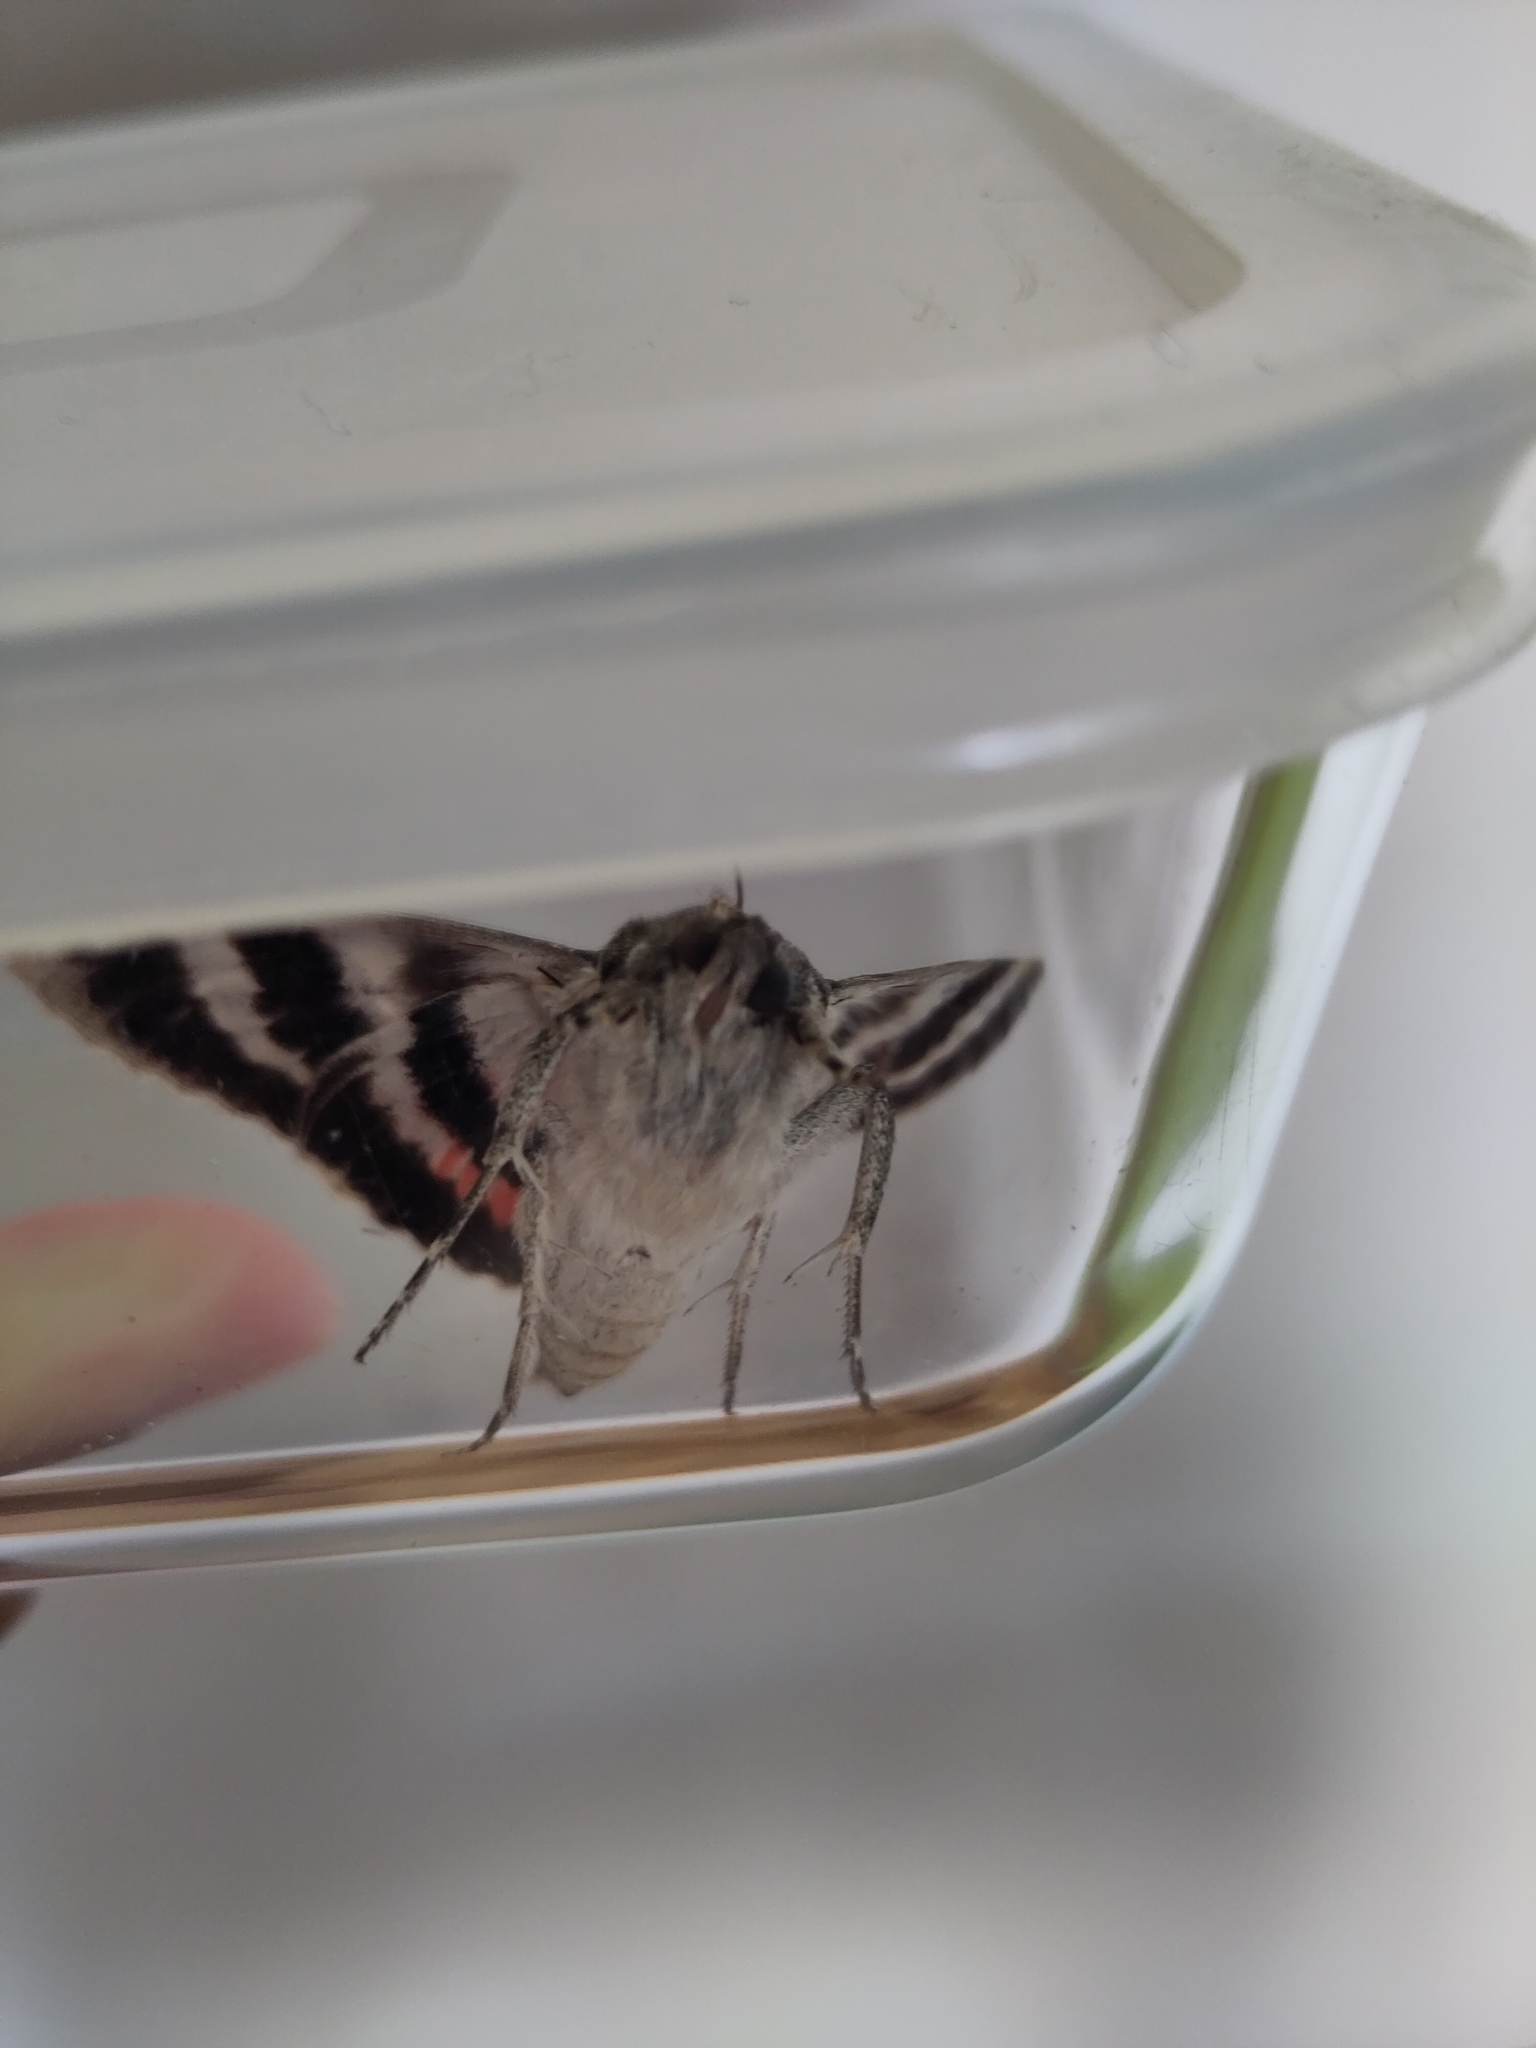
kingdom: Animalia
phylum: Arthropoda
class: Insecta
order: Lepidoptera
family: Erebidae
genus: Catocala
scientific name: Catocala elocata
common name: French red underwing
